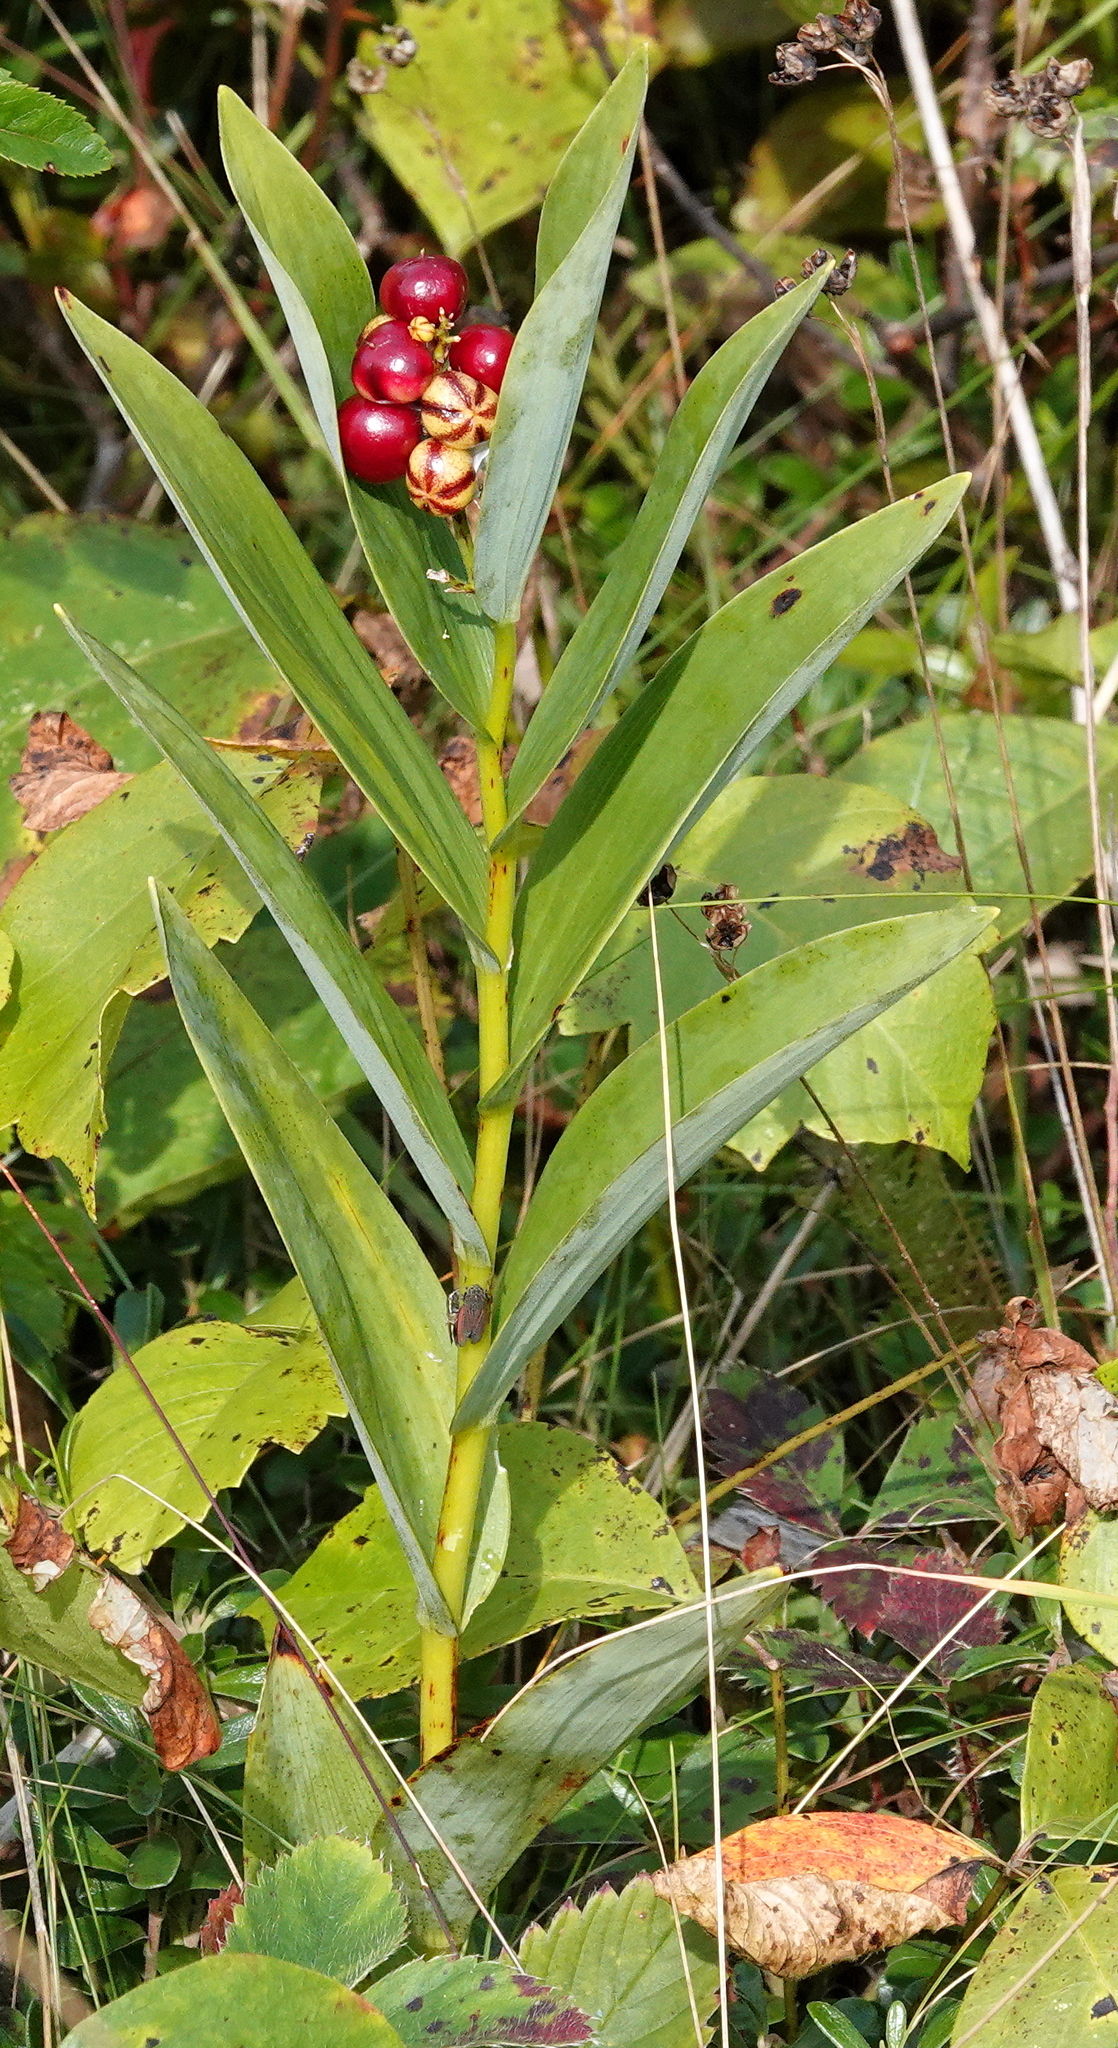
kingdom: Plantae
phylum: Tracheophyta
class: Liliopsida
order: Asparagales
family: Asparagaceae
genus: Maianthemum
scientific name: Maianthemum stellatum
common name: Little false solomon's seal
